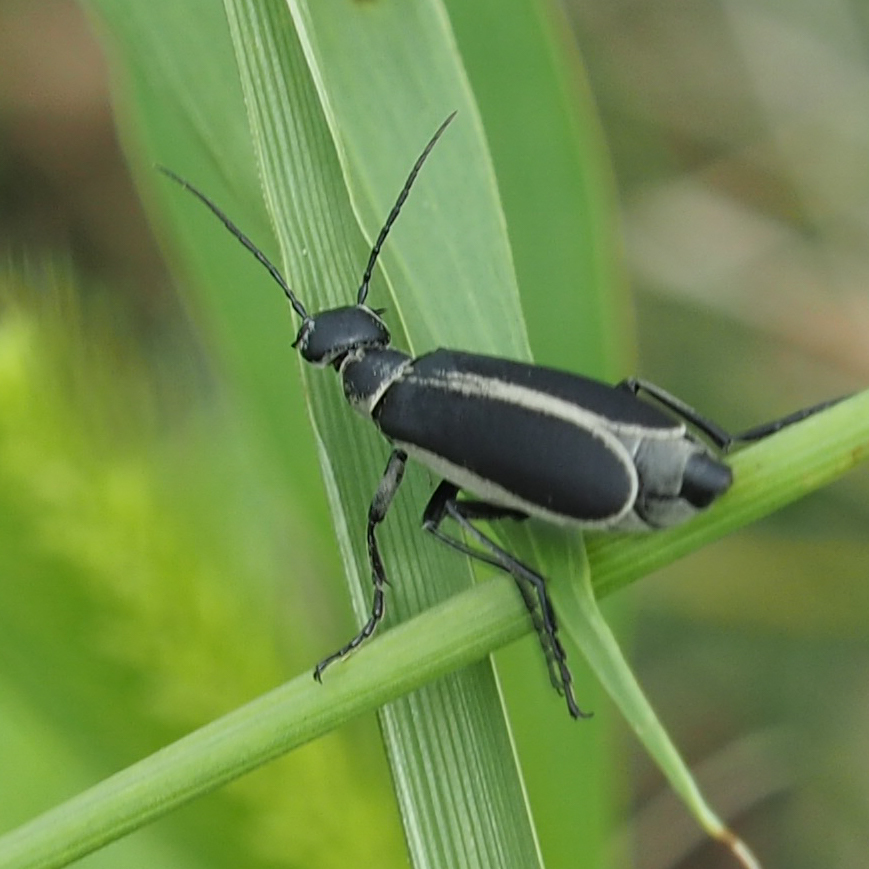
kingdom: Animalia
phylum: Arthropoda
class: Insecta
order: Coleoptera
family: Meloidae
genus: Epicauta
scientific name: Epicauta funebris
